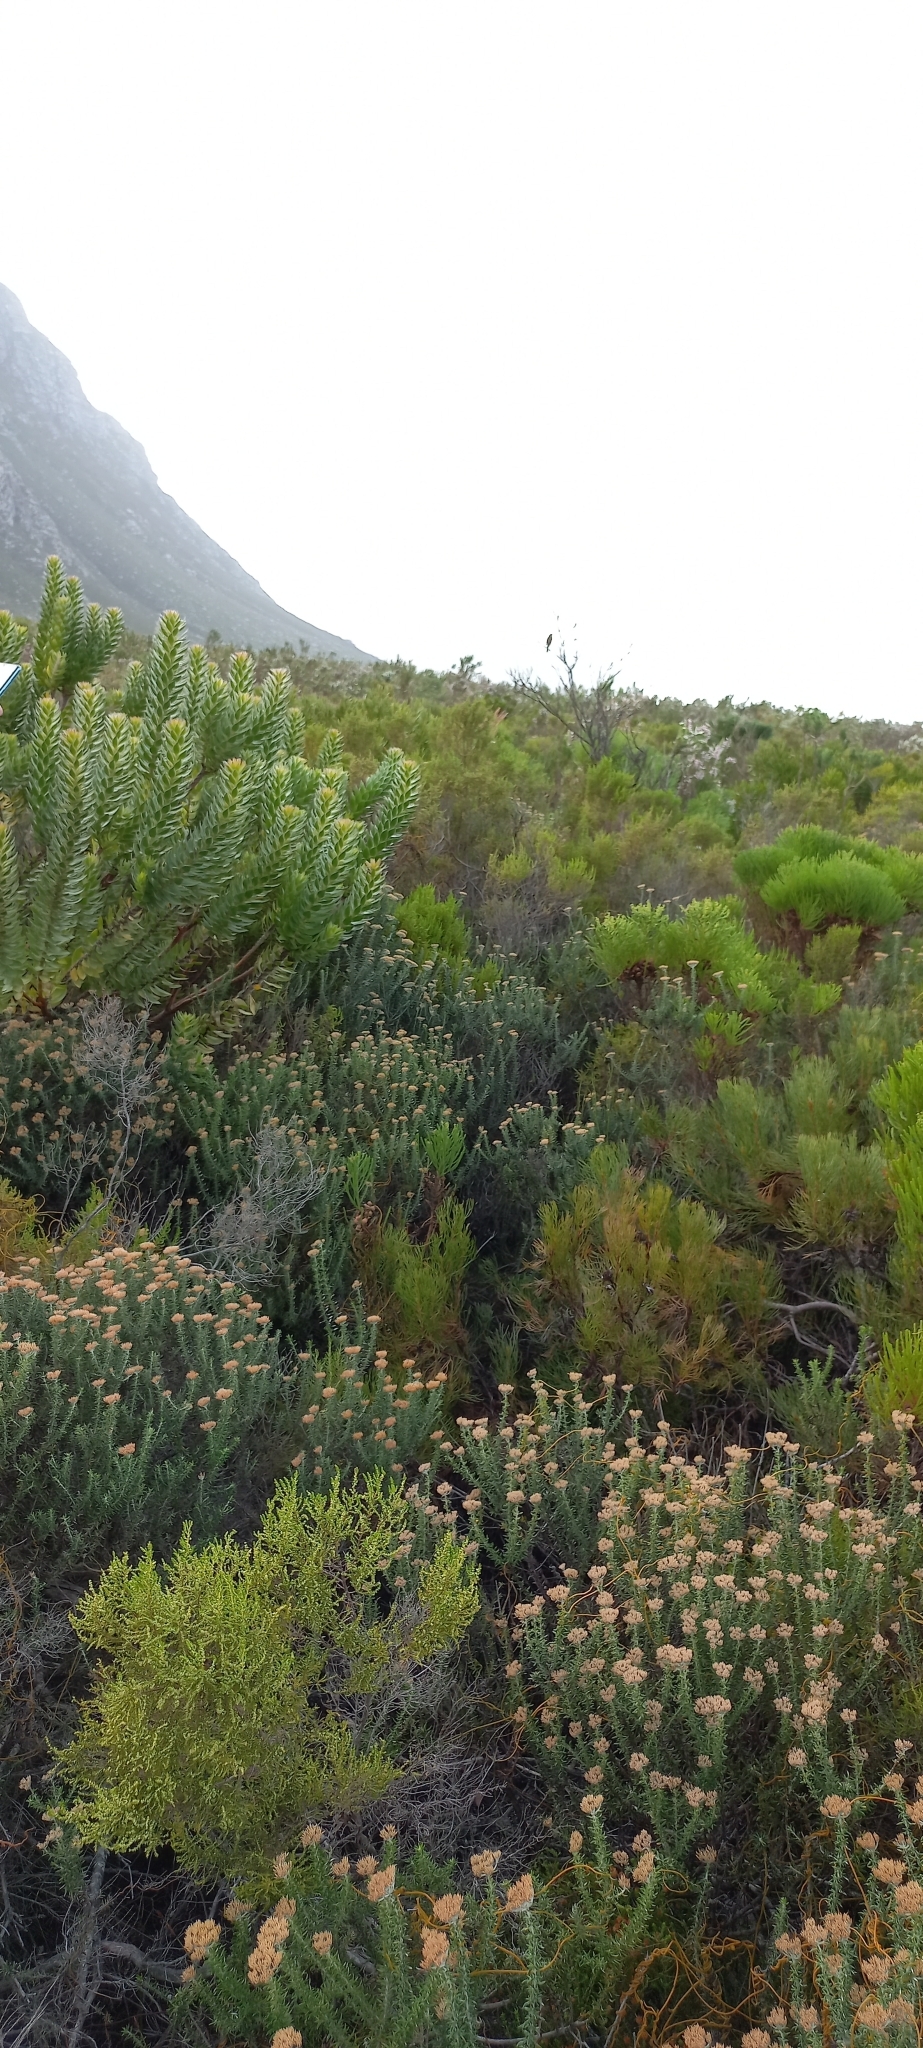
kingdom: Plantae
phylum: Tracheophyta
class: Magnoliopsida
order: Proteales
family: Proteaceae
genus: Mimetes
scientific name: Mimetes hirtus
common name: Marsh pagoda
